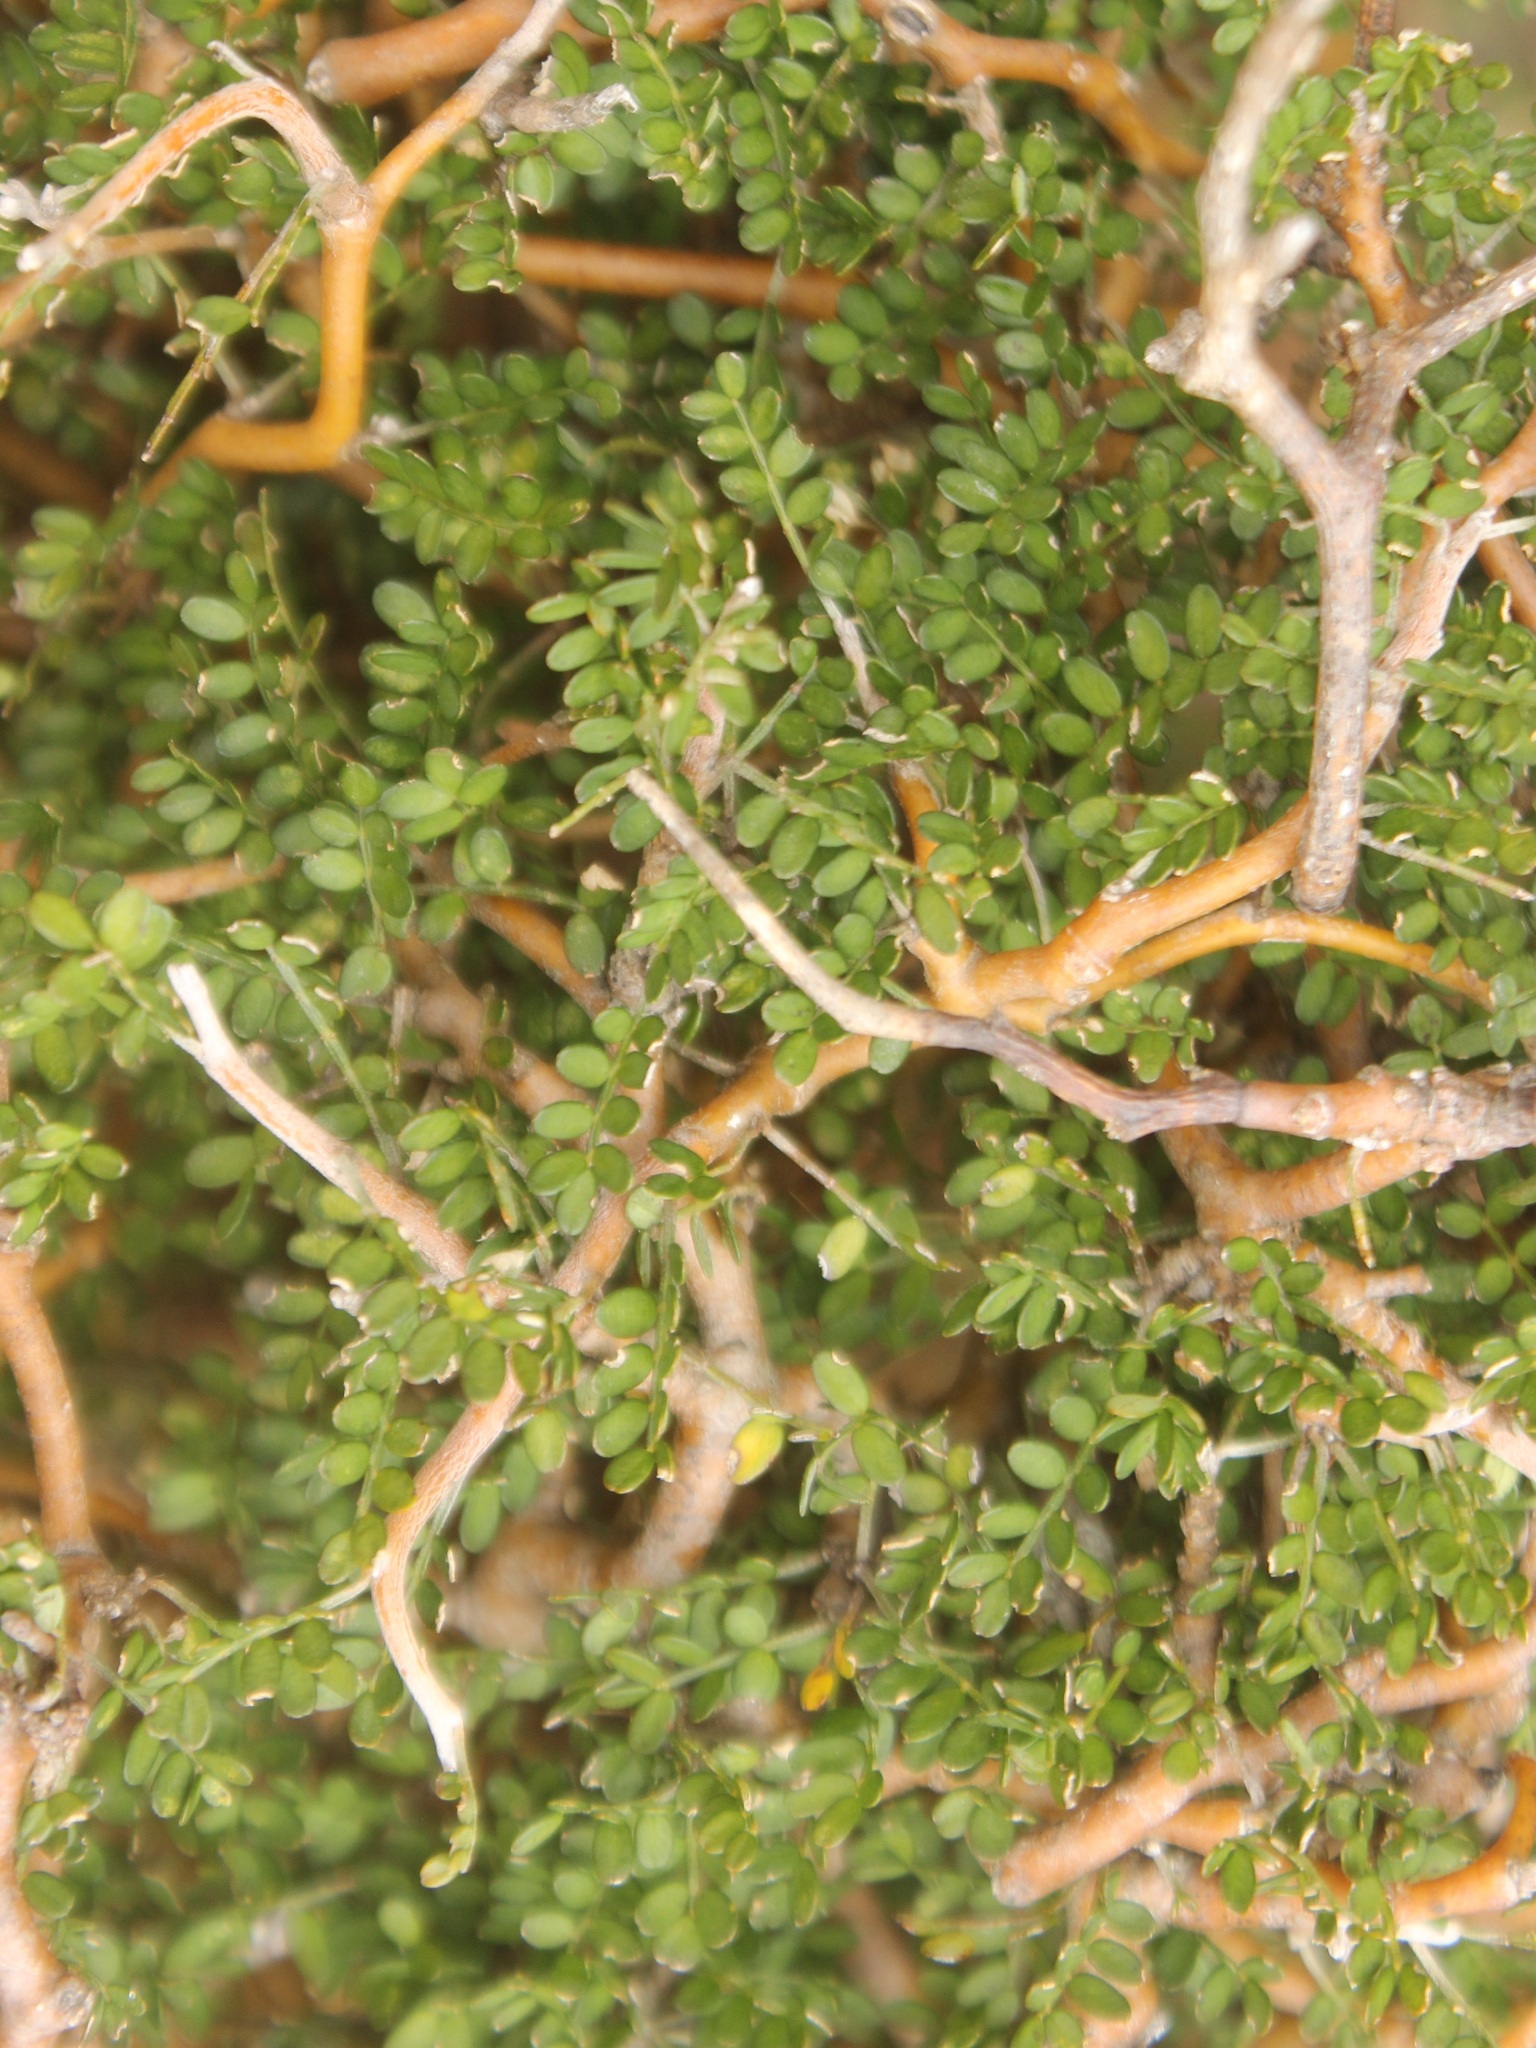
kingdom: Plantae
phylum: Tracheophyta
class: Magnoliopsida
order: Fabales
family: Fabaceae
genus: Sophora
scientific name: Sophora prostrata
